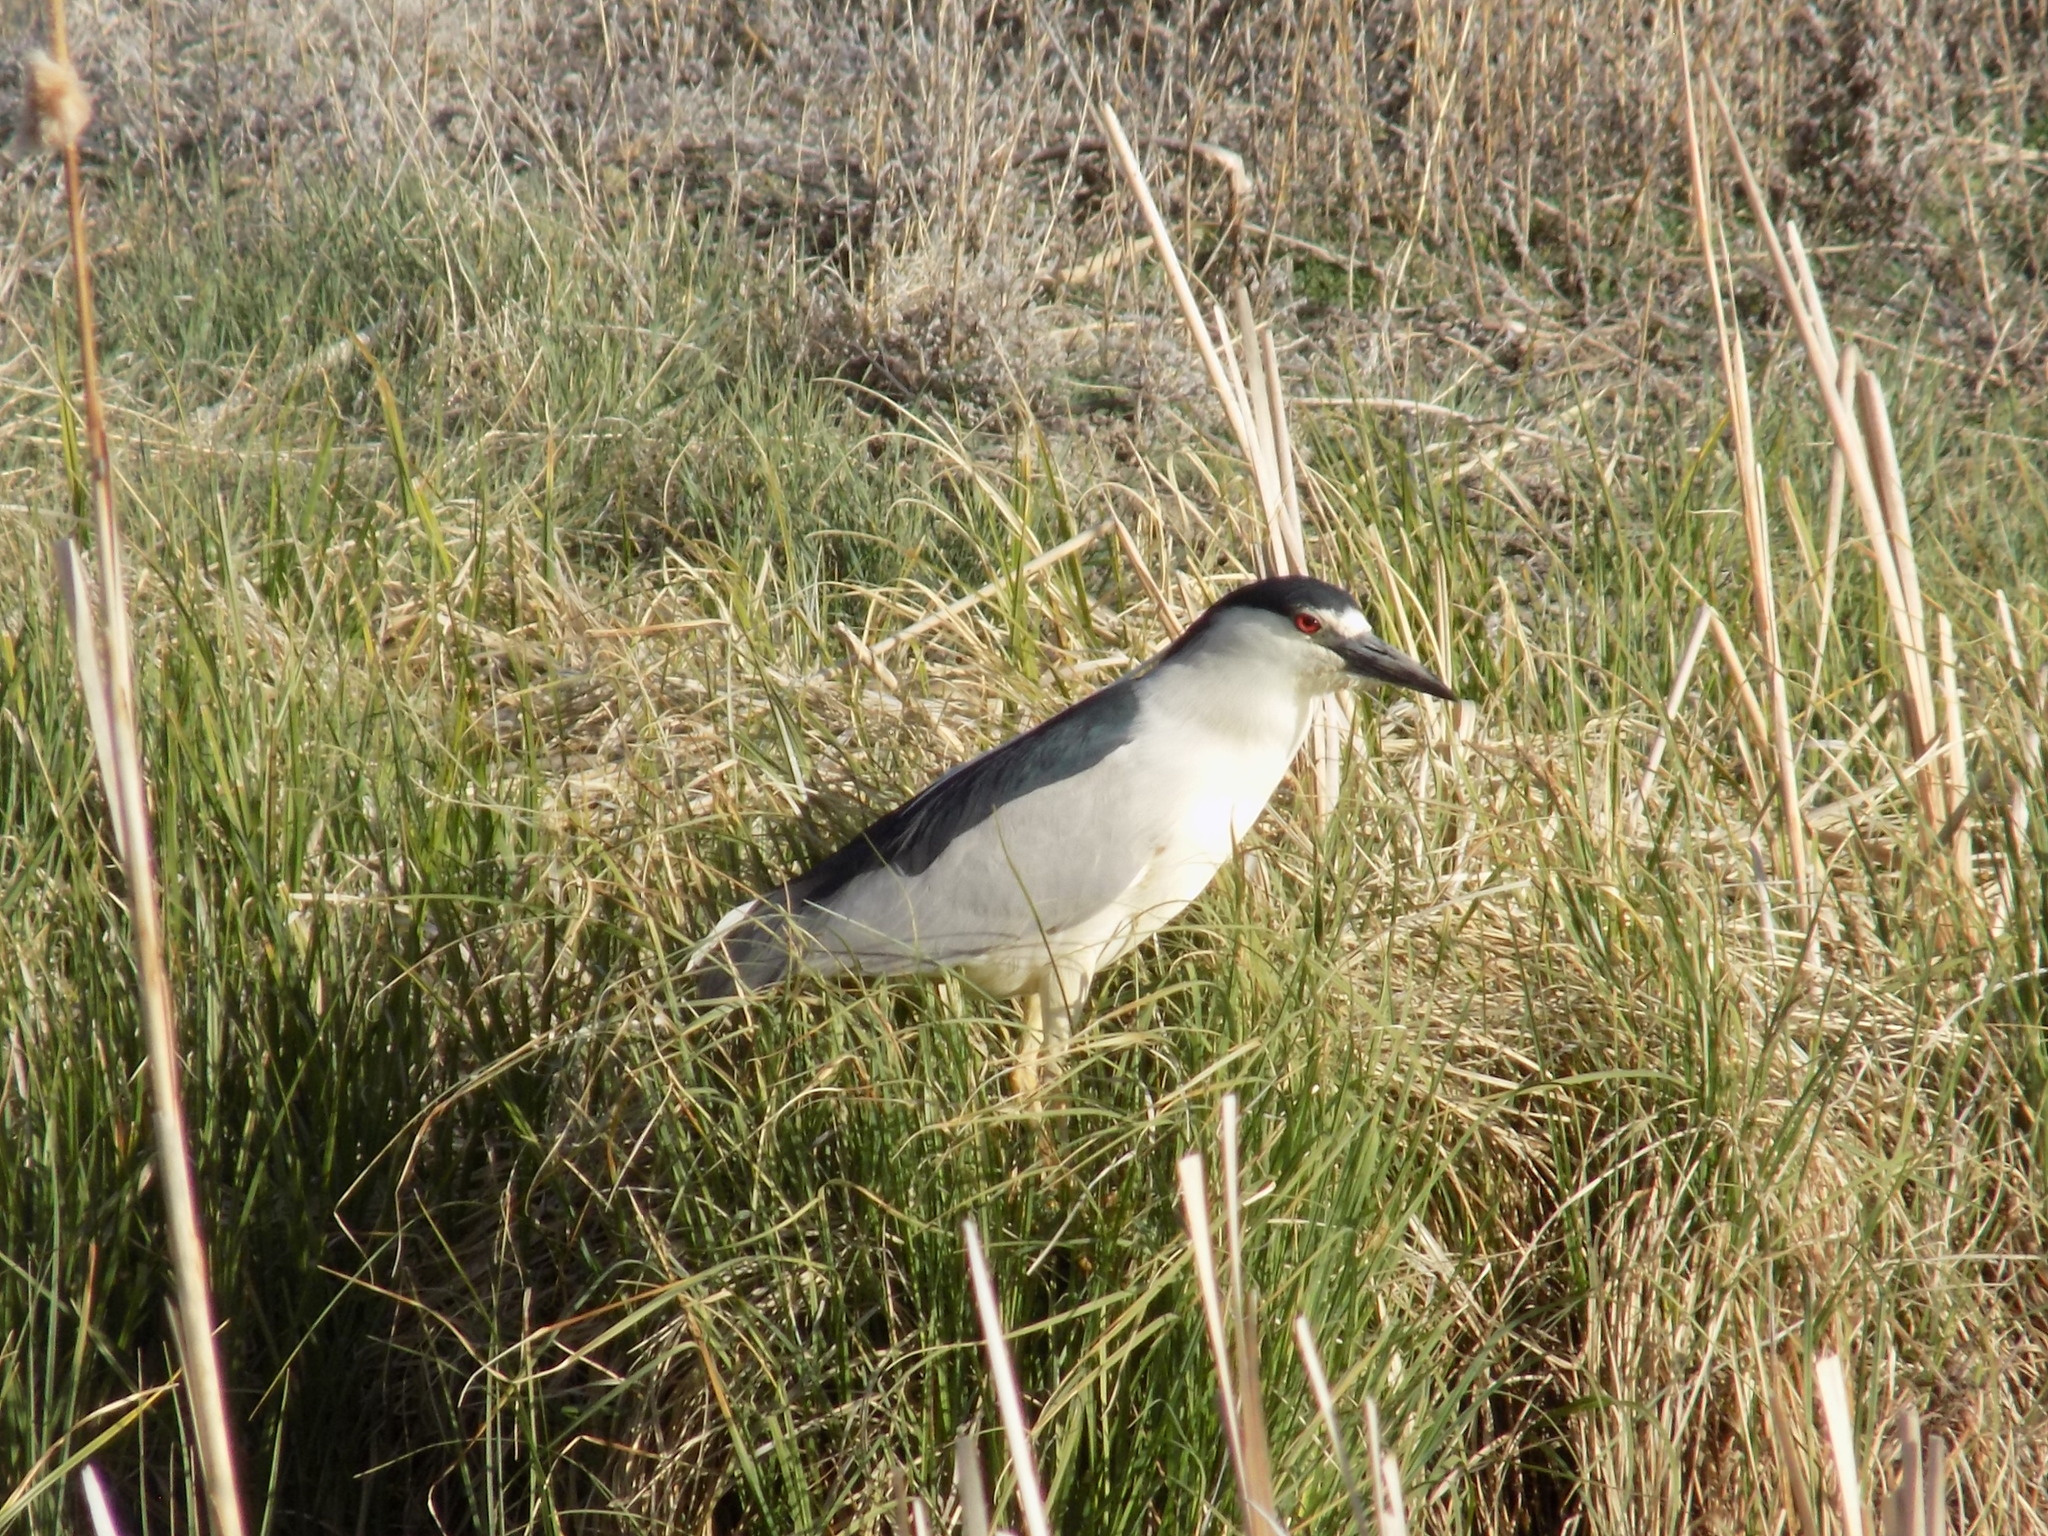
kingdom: Animalia
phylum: Chordata
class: Aves
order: Pelecaniformes
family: Ardeidae
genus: Nycticorax
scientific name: Nycticorax nycticorax
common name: Black-crowned night heron
